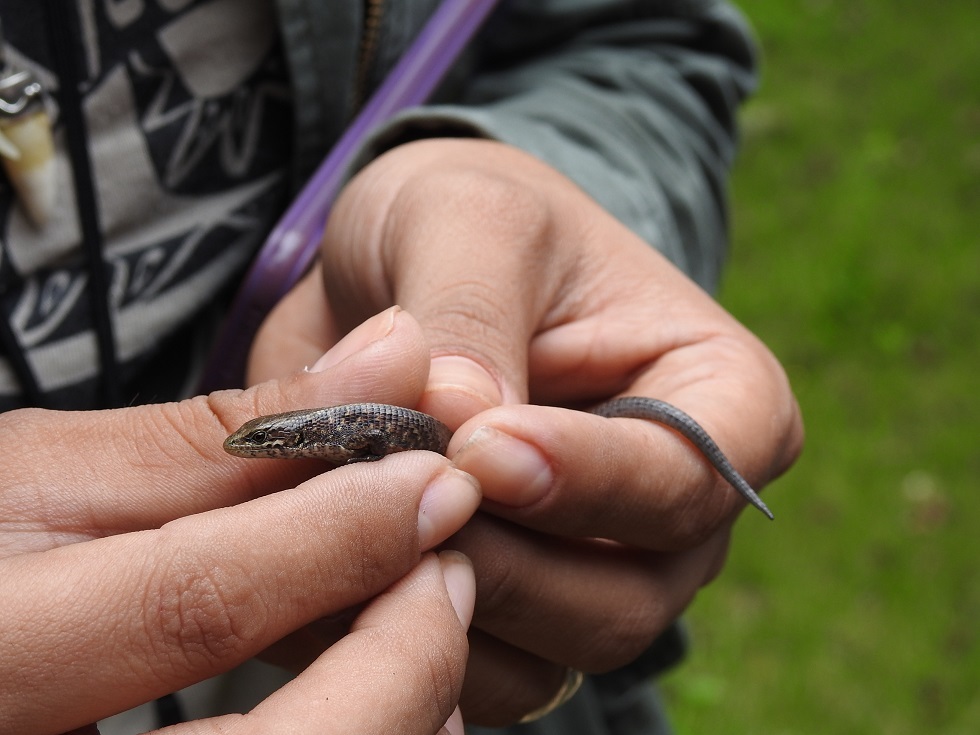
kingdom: Animalia
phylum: Chordata
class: Squamata
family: Anguidae
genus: Abronia
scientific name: Abronia moreletii
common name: Morelet's alligator lizard
